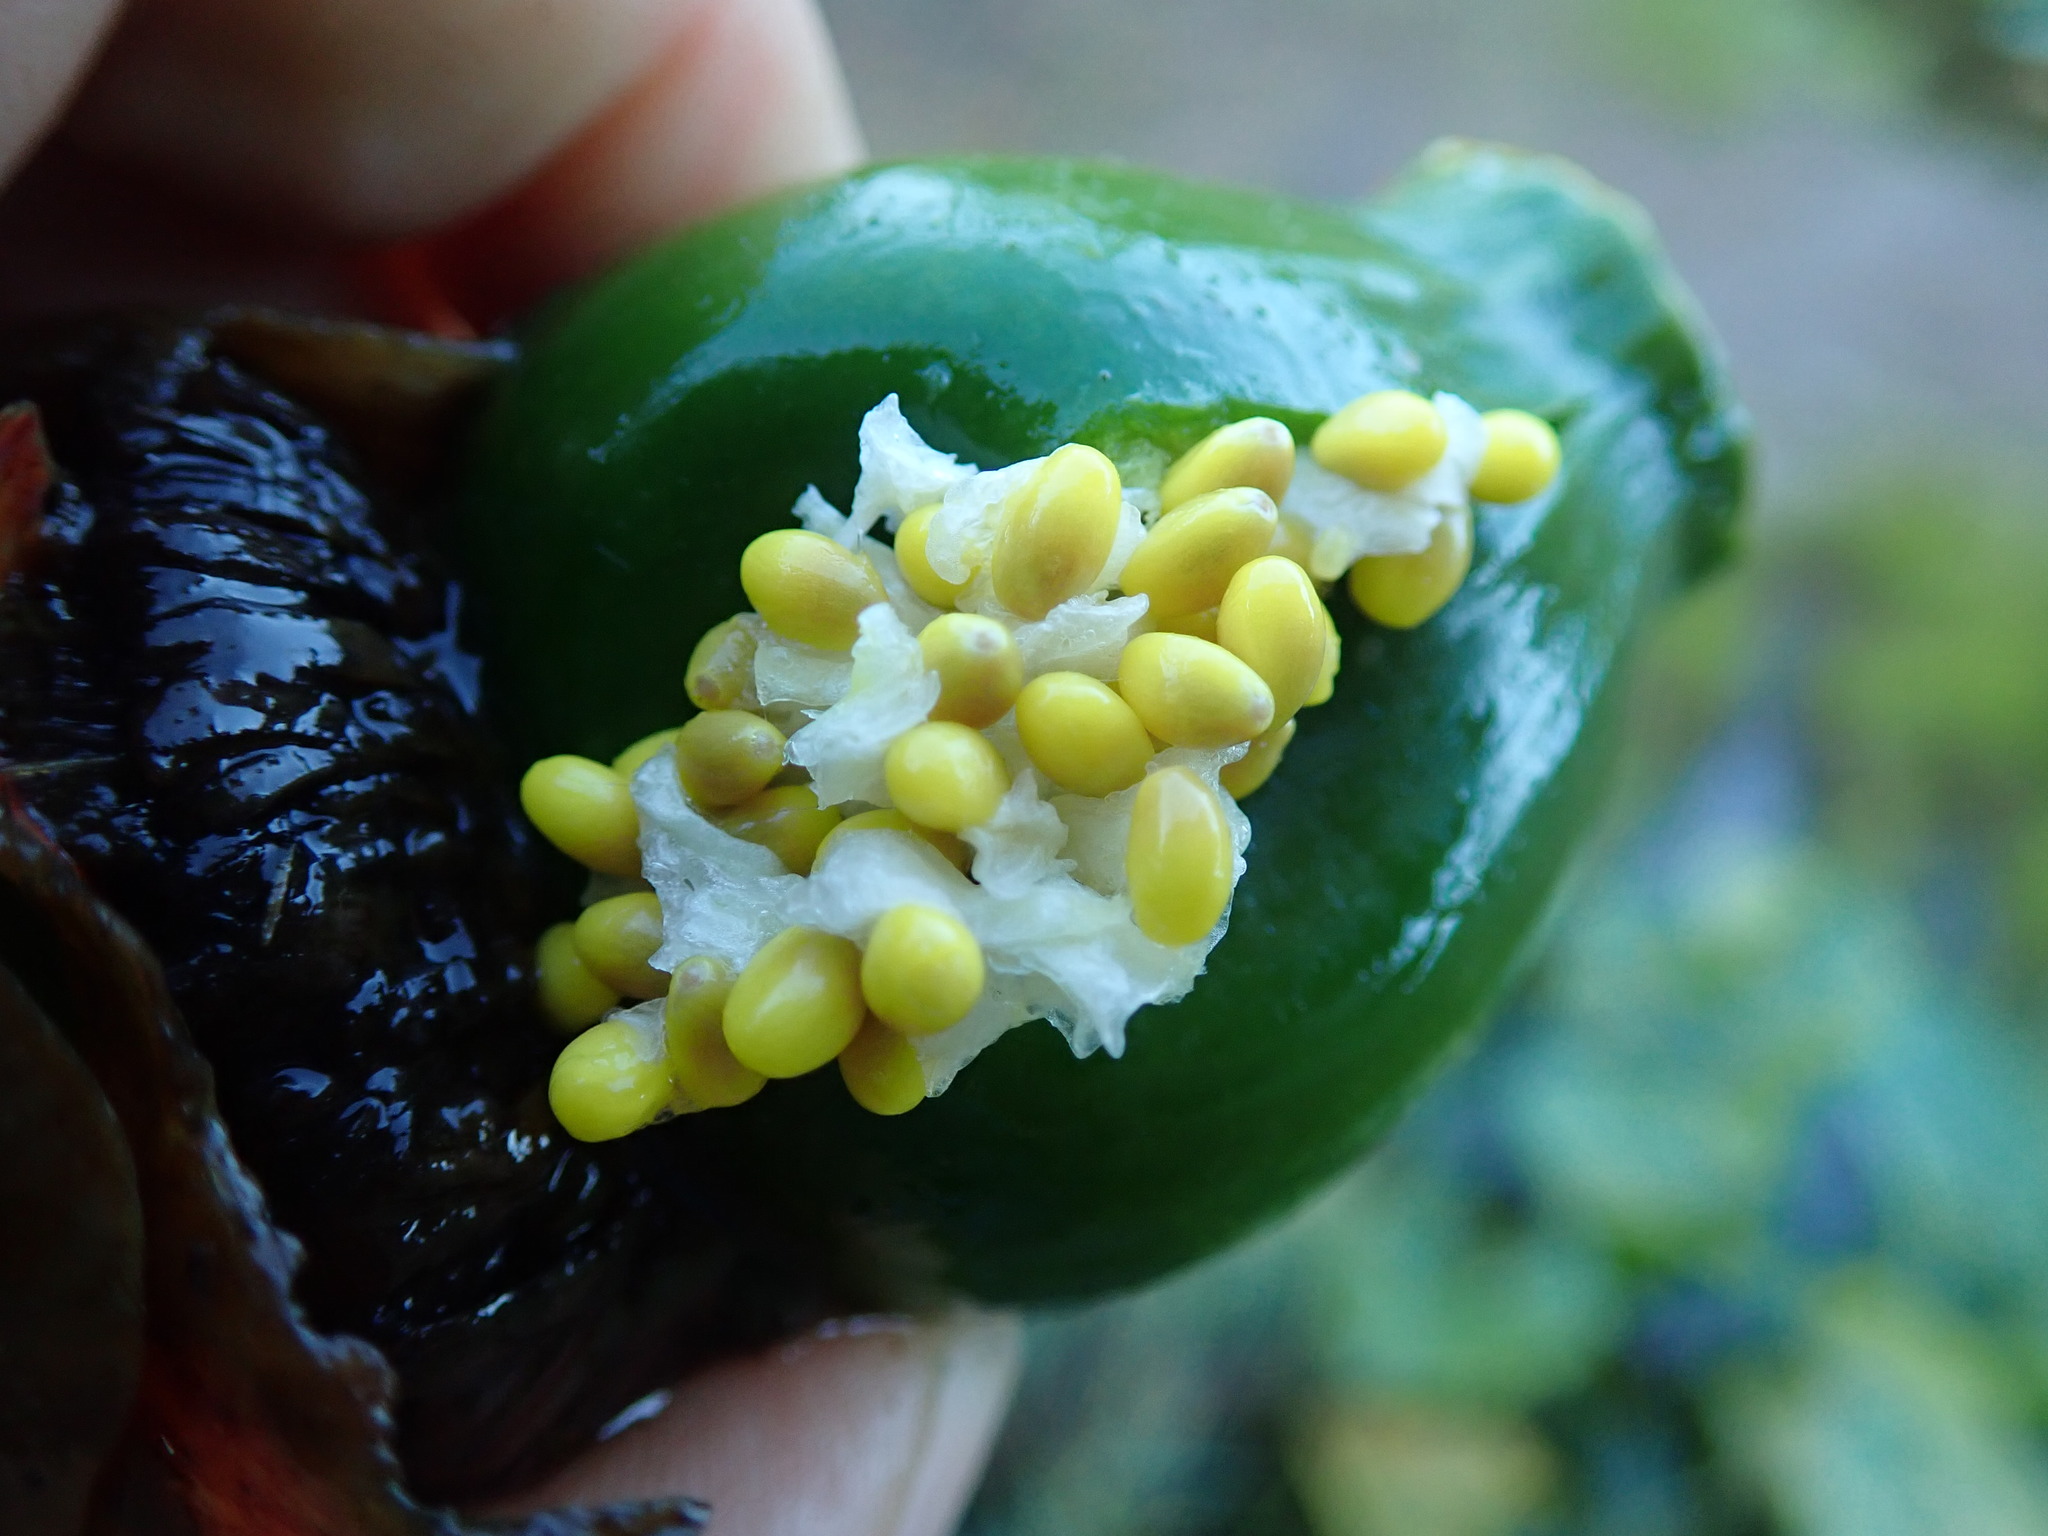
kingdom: Plantae
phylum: Tracheophyta
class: Magnoliopsida
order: Nymphaeales
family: Nymphaeaceae
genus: Nuphar
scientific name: Nuphar polysepala
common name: Rocky mountain cow-lily
